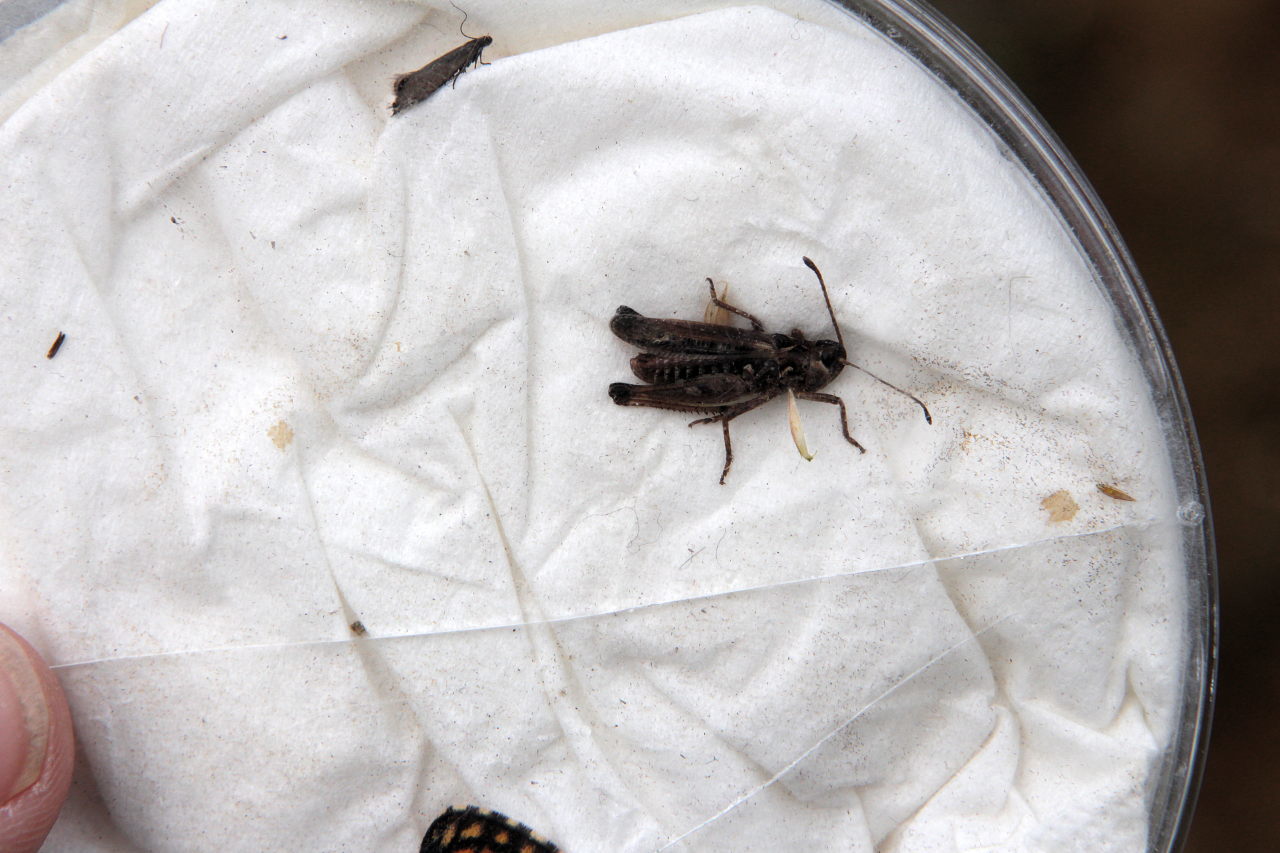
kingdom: Animalia
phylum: Arthropoda
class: Insecta
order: Orthoptera
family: Acrididae
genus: Myrmeleotettix
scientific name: Myrmeleotettix maculatus
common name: Mottled grasshopper
